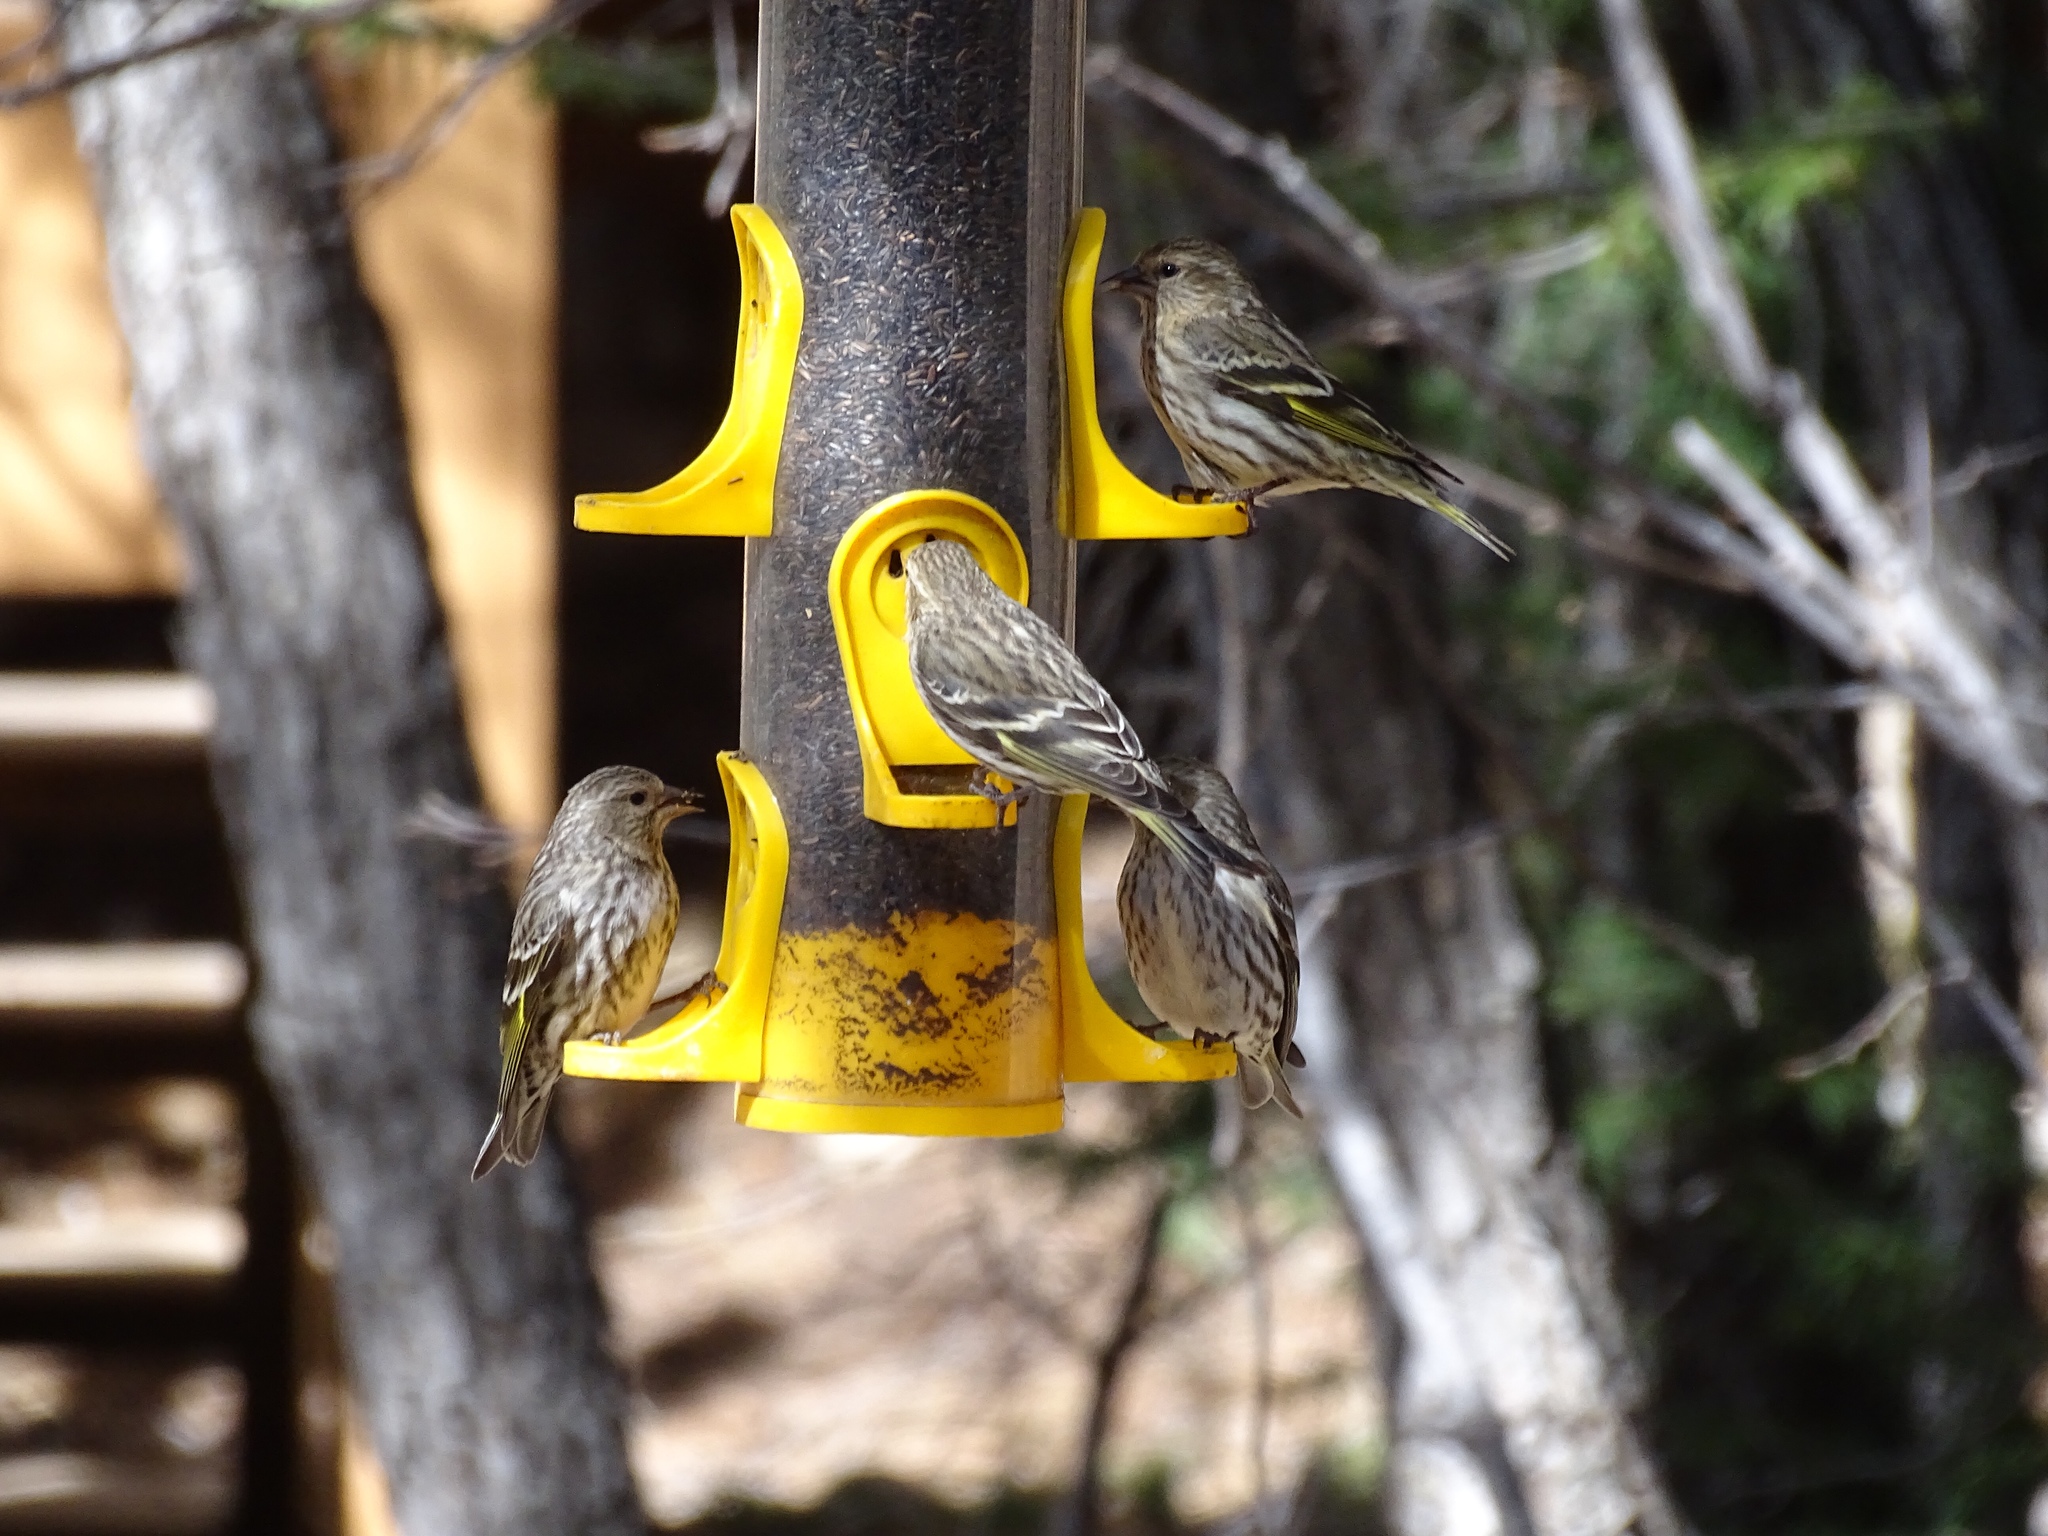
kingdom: Animalia
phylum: Chordata
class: Aves
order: Passeriformes
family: Fringillidae
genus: Spinus
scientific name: Spinus pinus
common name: Pine siskin
